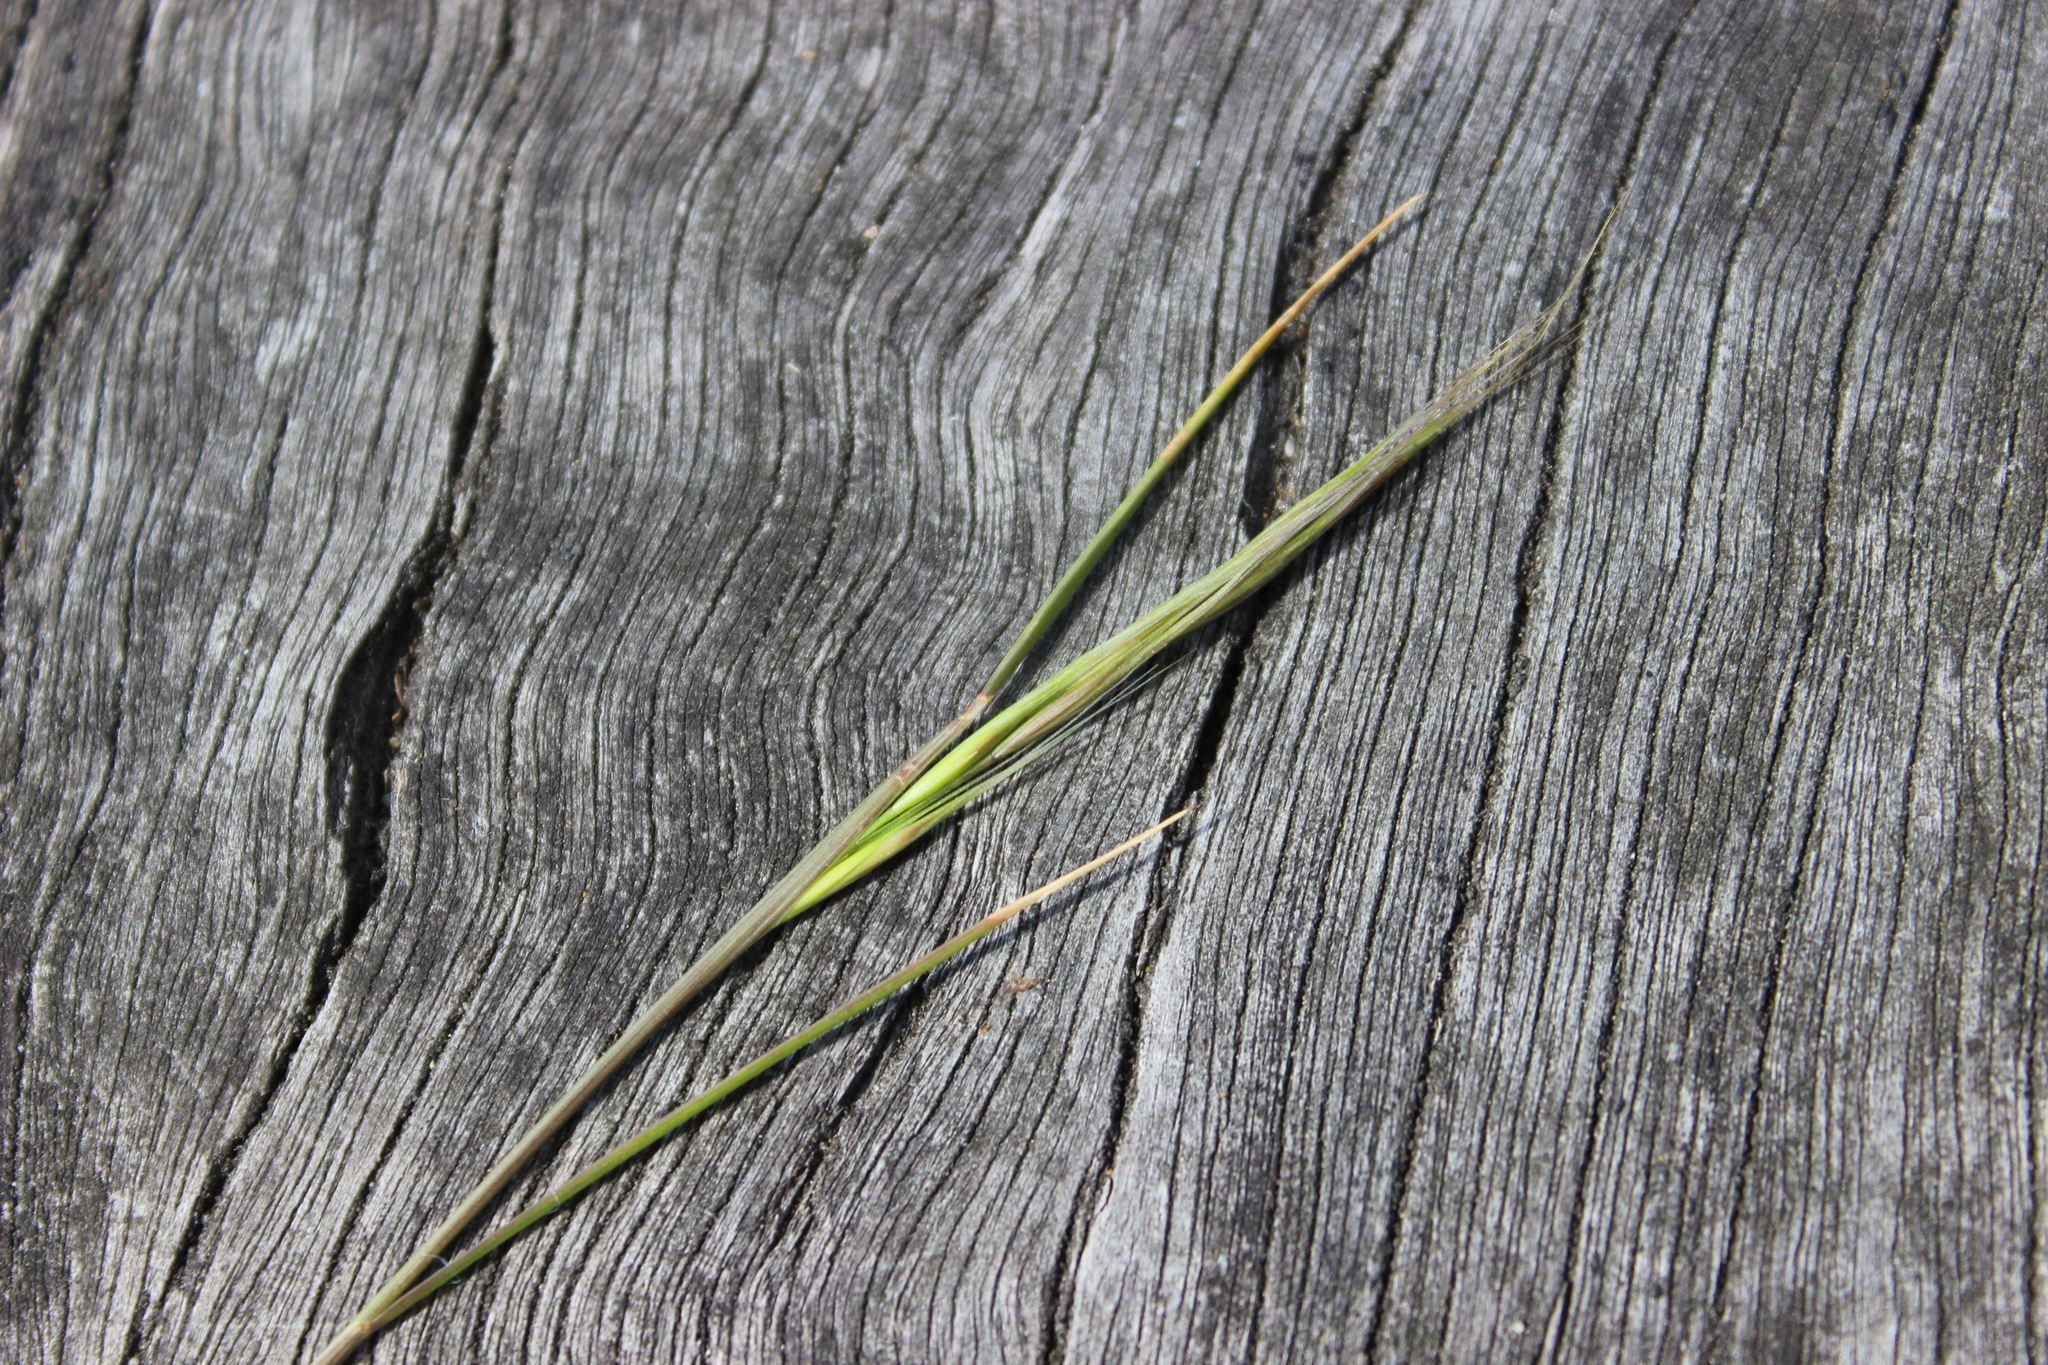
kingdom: Plantae
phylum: Tracheophyta
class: Liliopsida
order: Poales
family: Poaceae
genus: Bromus
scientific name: Bromus diandrus
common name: Ripgut brome
